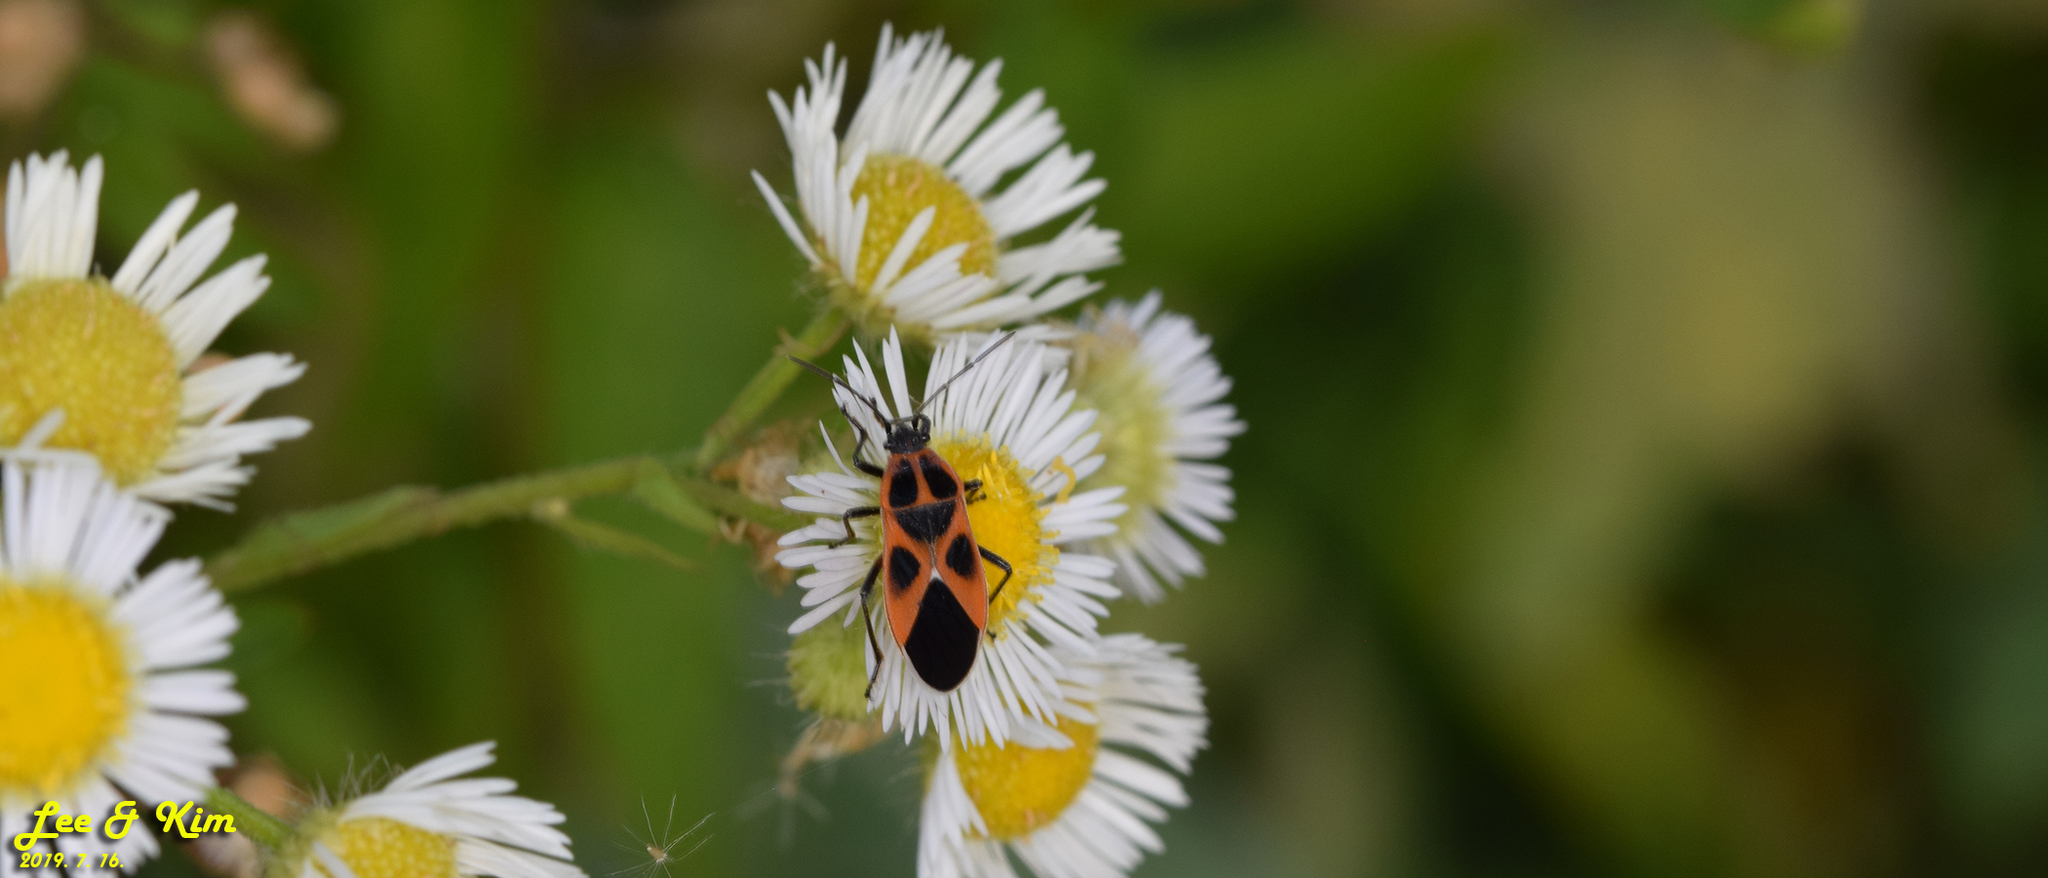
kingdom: Animalia
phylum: Arthropoda
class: Insecta
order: Hemiptera
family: Lygaeidae
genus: Tropidothorax
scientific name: Tropidothorax cruciger
